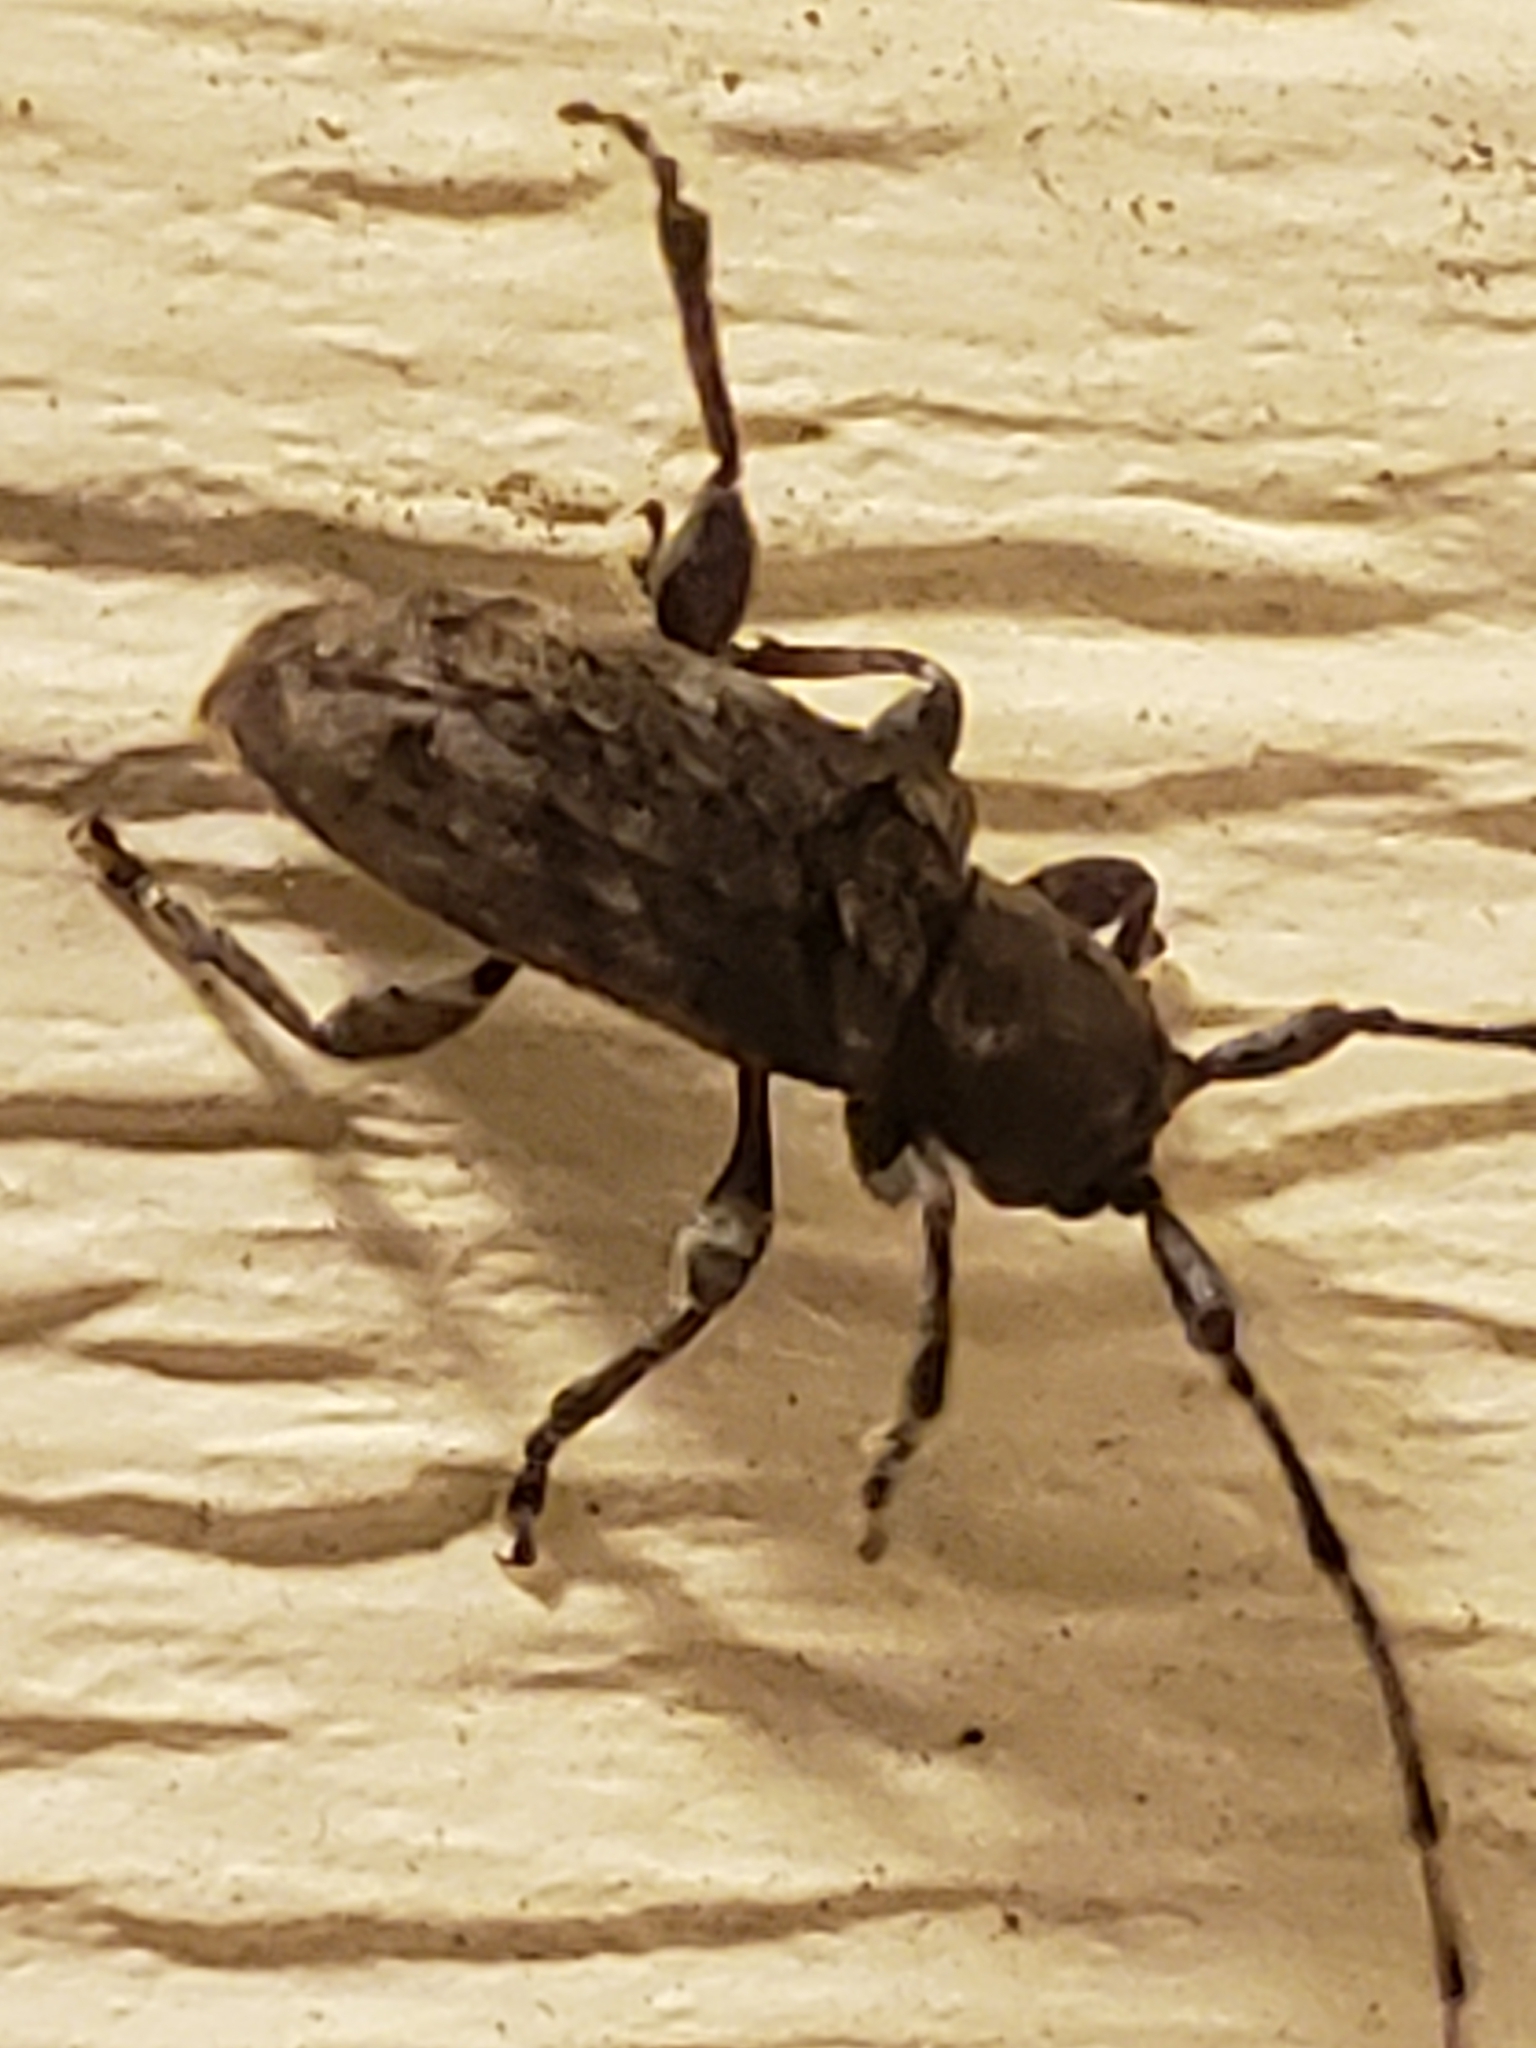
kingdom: Animalia
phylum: Arthropoda
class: Insecta
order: Coleoptera
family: Cerambycidae
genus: Ecyrus
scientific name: Ecyrus dasycerus
